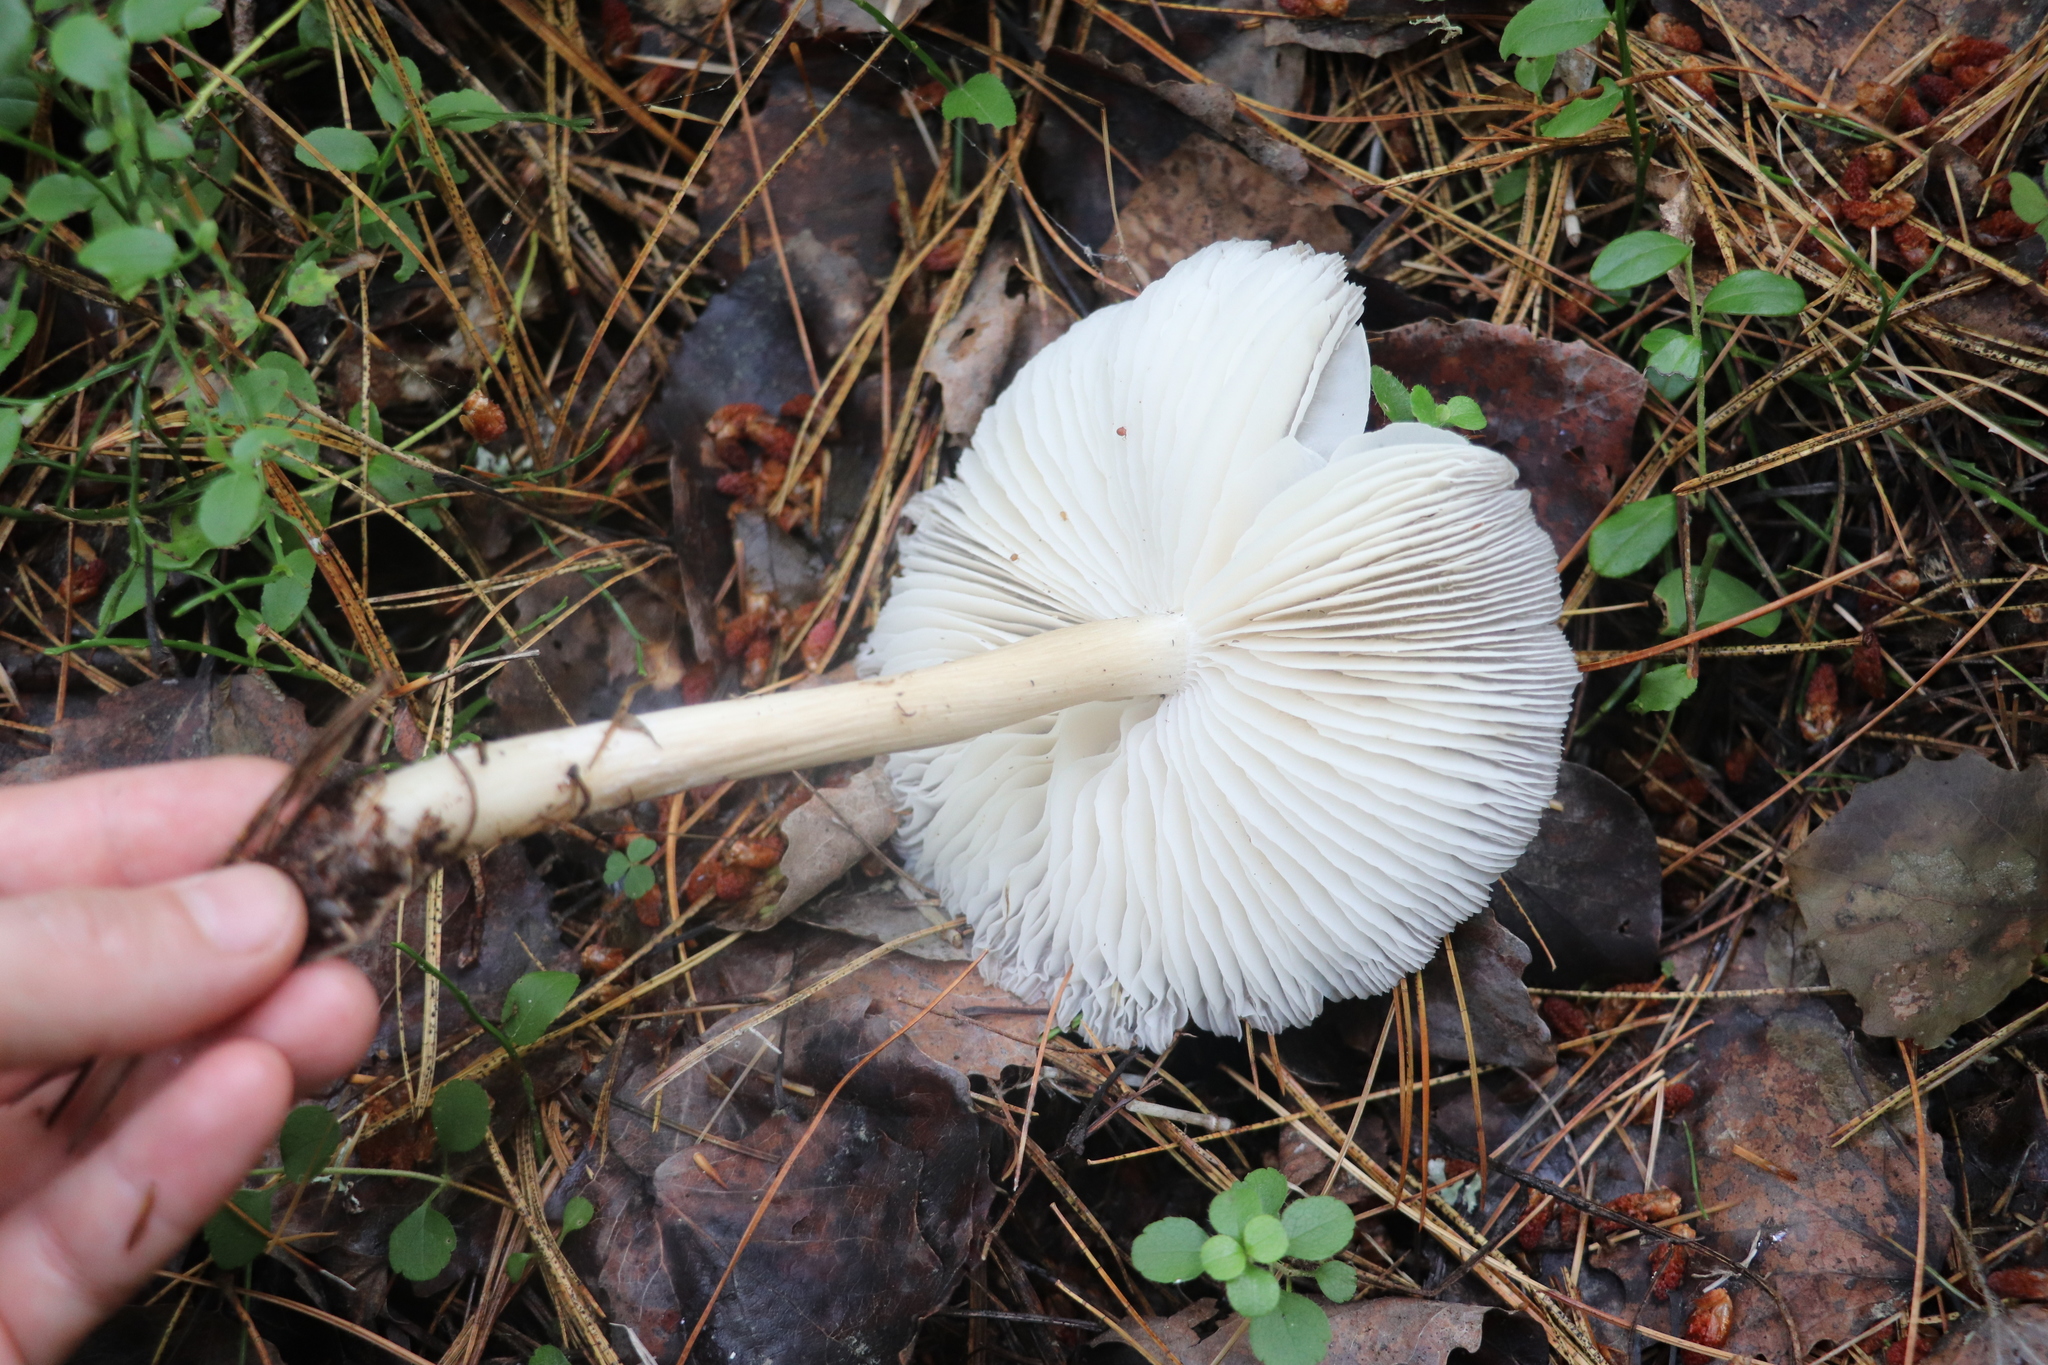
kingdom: Fungi
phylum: Basidiomycota
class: Agaricomycetes
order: Agaricales
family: Tricholomataceae
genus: Megacollybia
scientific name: Megacollybia platyphylla
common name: Whitelaced shank
